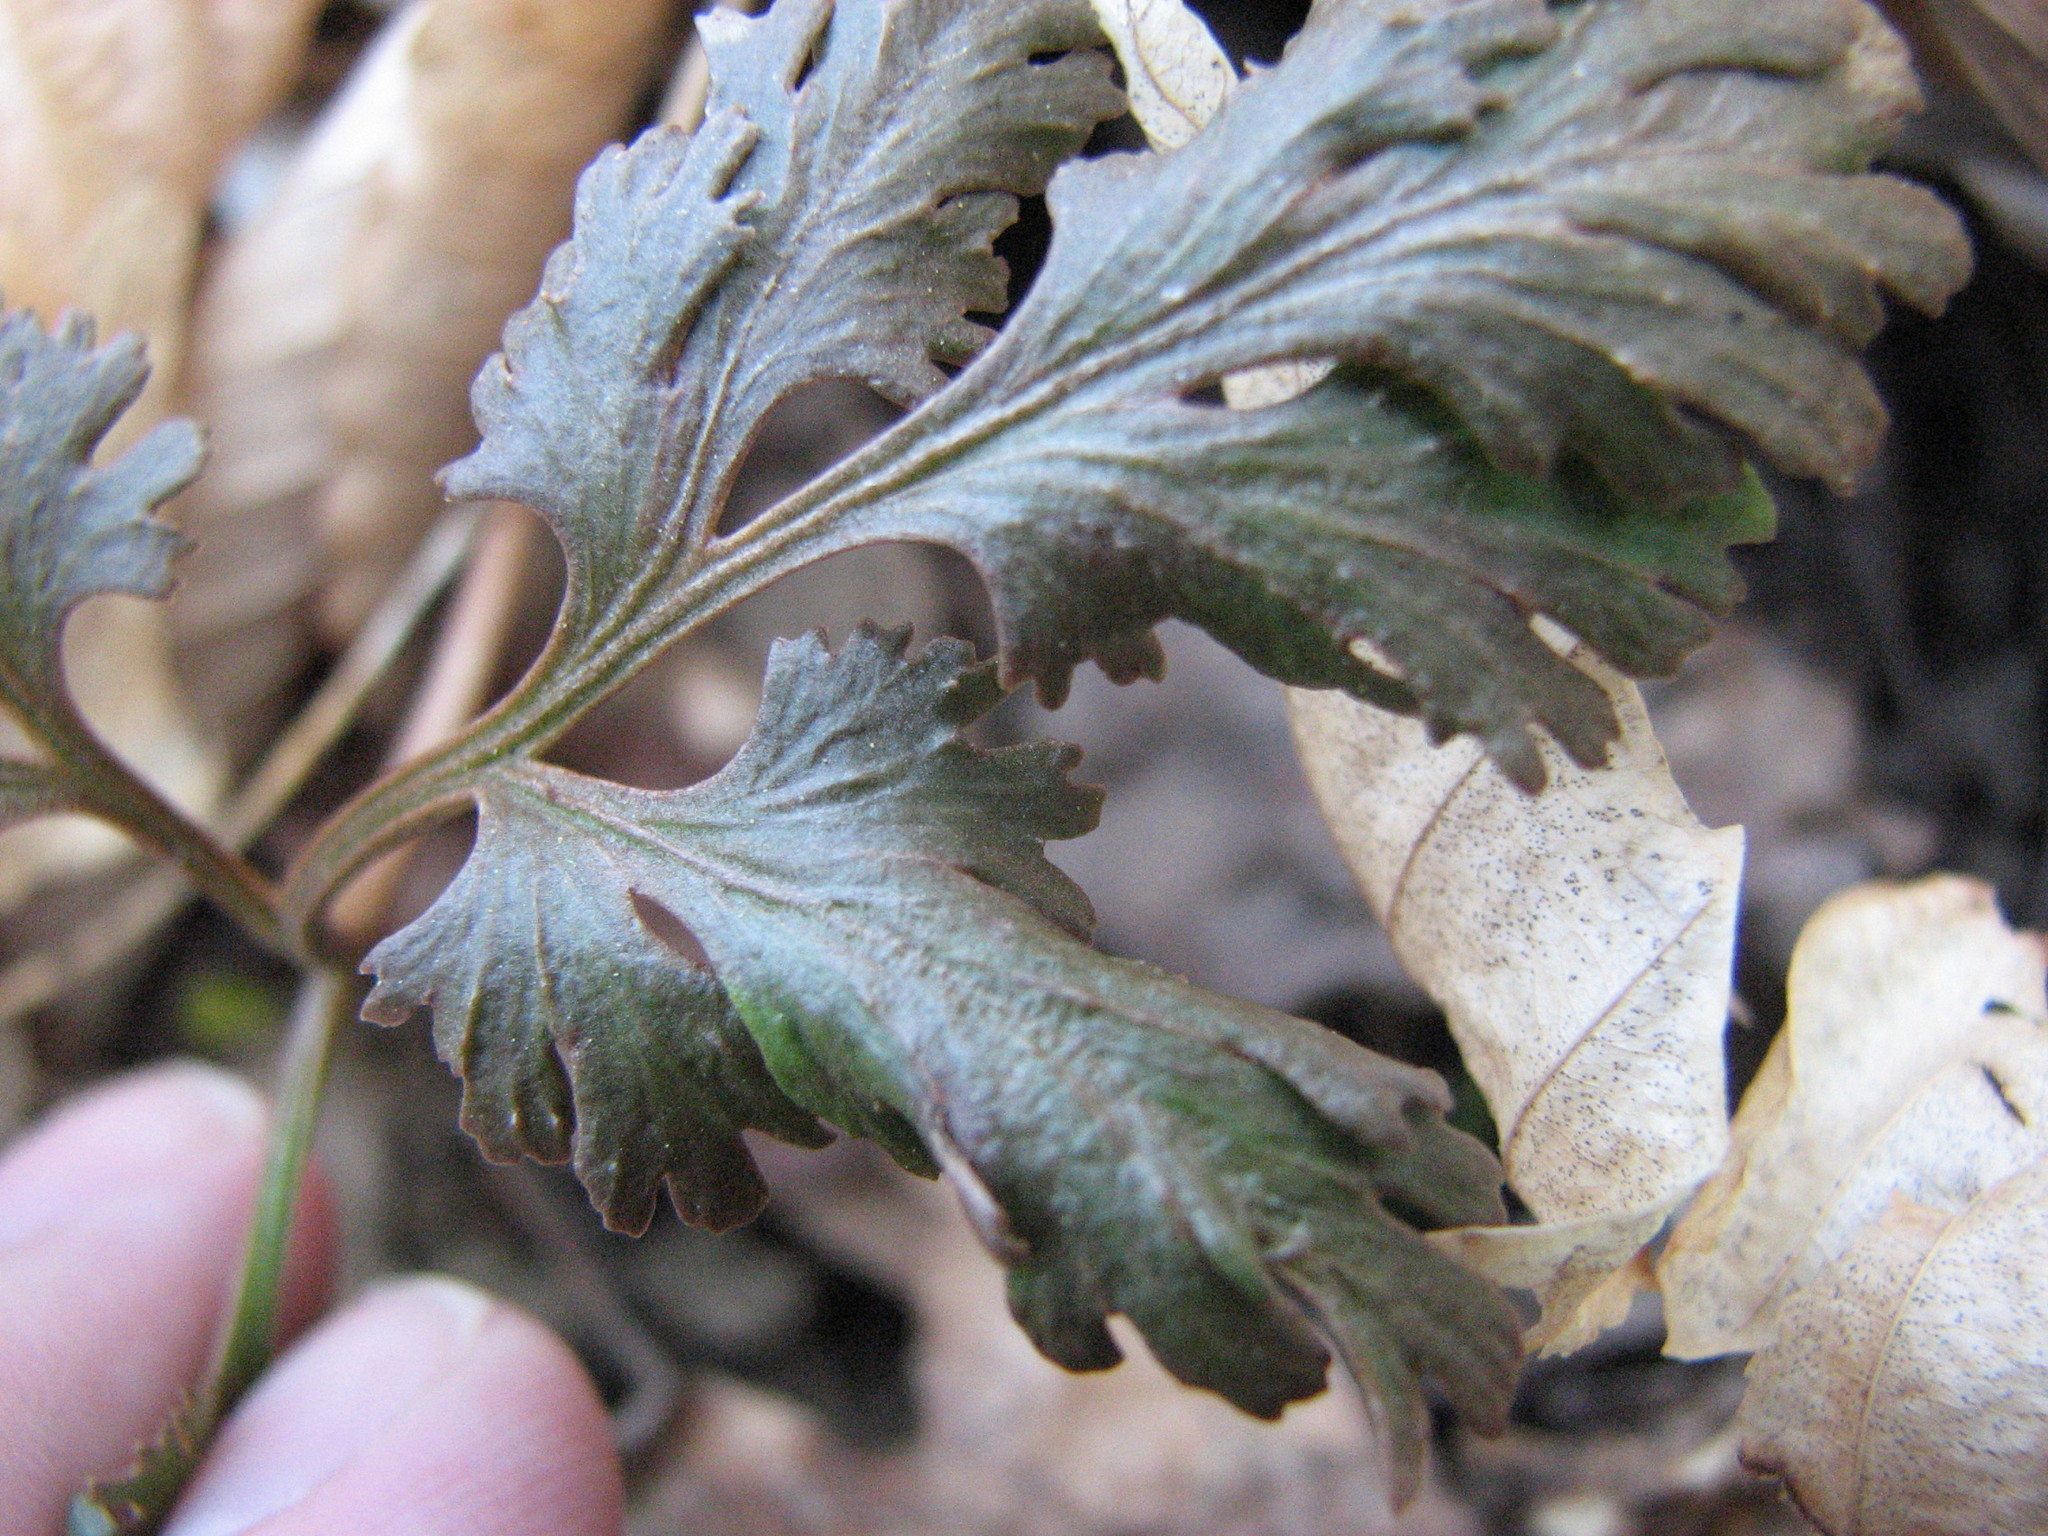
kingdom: Plantae
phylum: Tracheophyta
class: Polypodiopsida
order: Ophioglossales
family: Ophioglossaceae
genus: Sceptridium
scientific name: Sceptridium dissectum
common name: Cut-leaved grapefern
